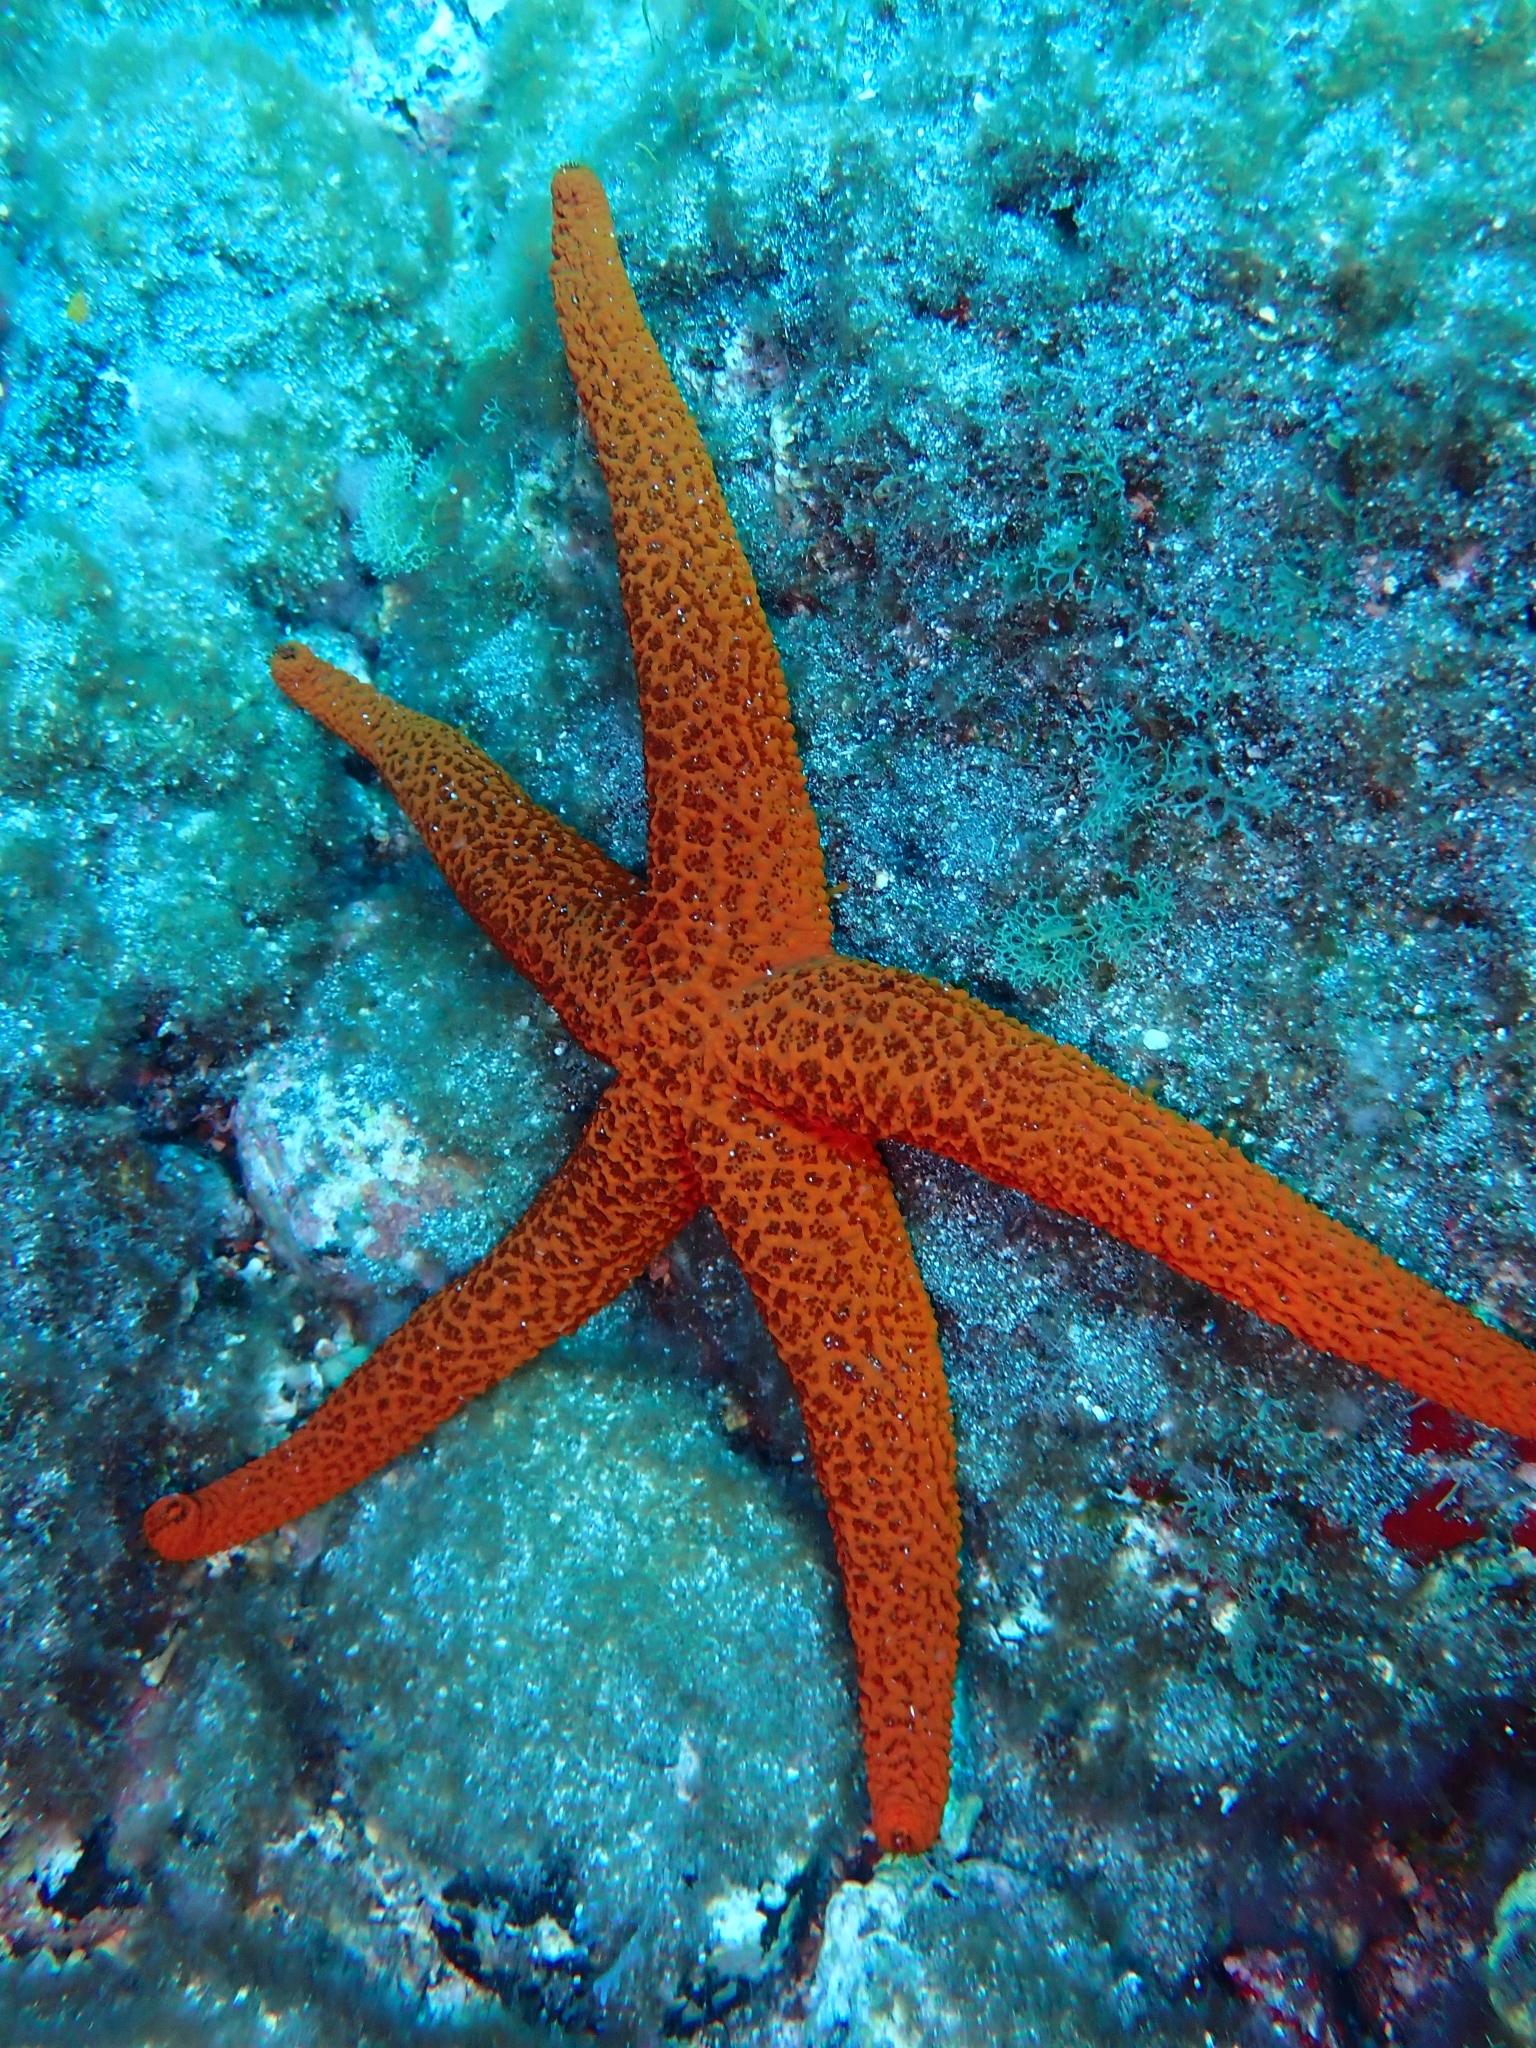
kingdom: Animalia
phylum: Echinodermata
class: Asteroidea
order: Spinulosida
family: Echinasteridae
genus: Echinaster
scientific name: Echinaster sepositus
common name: Red starfish
